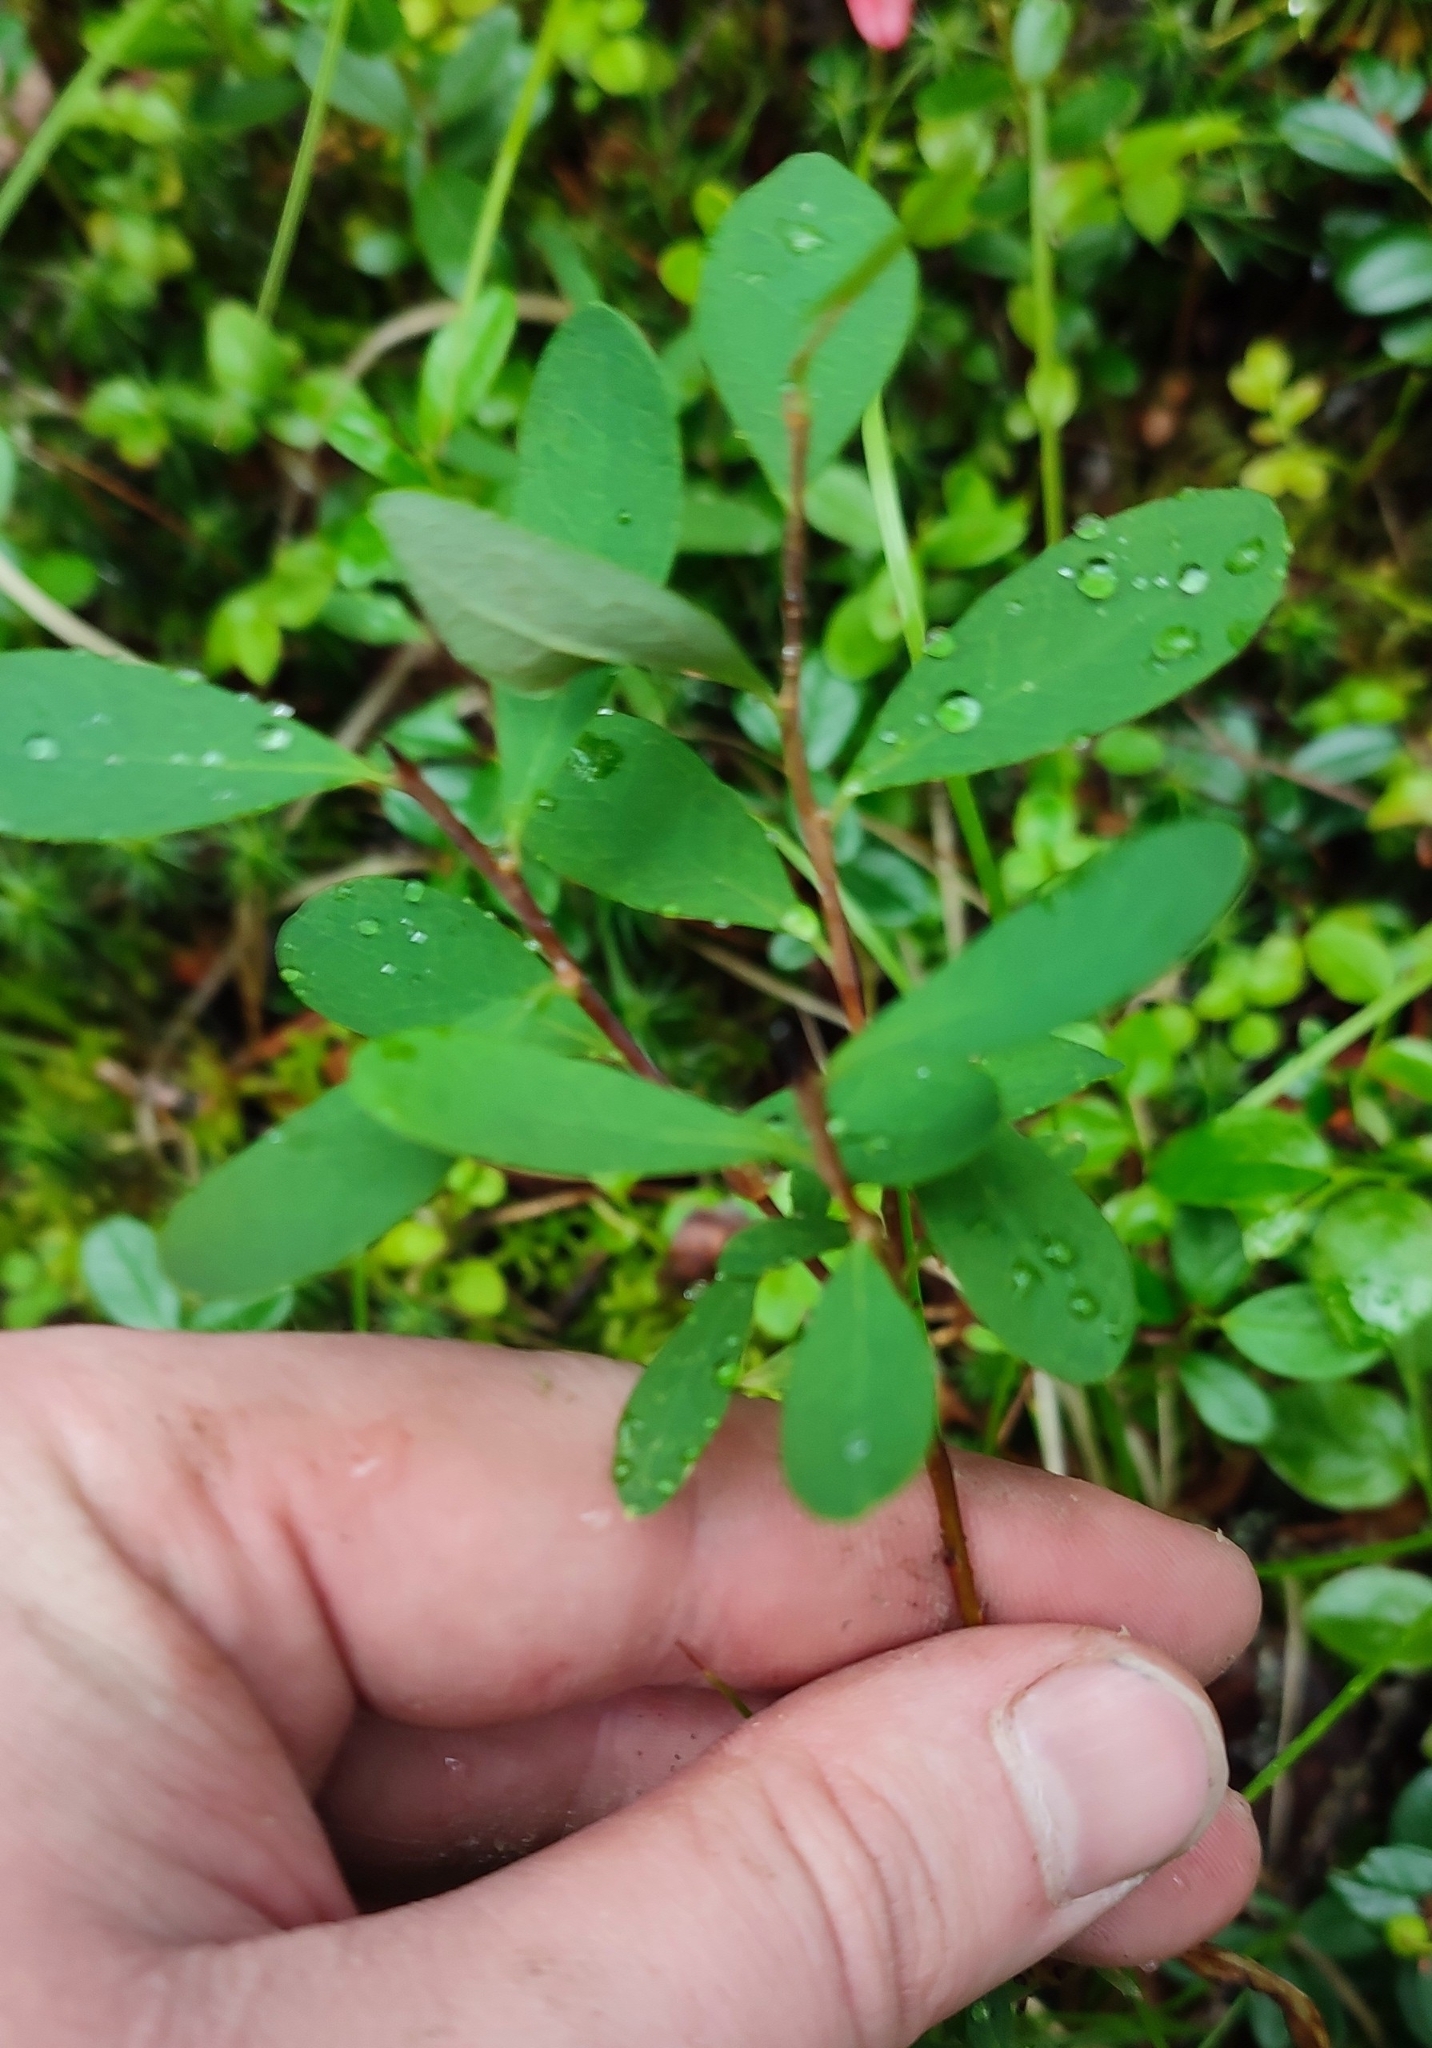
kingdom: Plantae
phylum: Tracheophyta
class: Magnoliopsida
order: Ericales
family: Ericaceae
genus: Vaccinium
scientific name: Vaccinium uliginosum
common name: Bog bilberry
